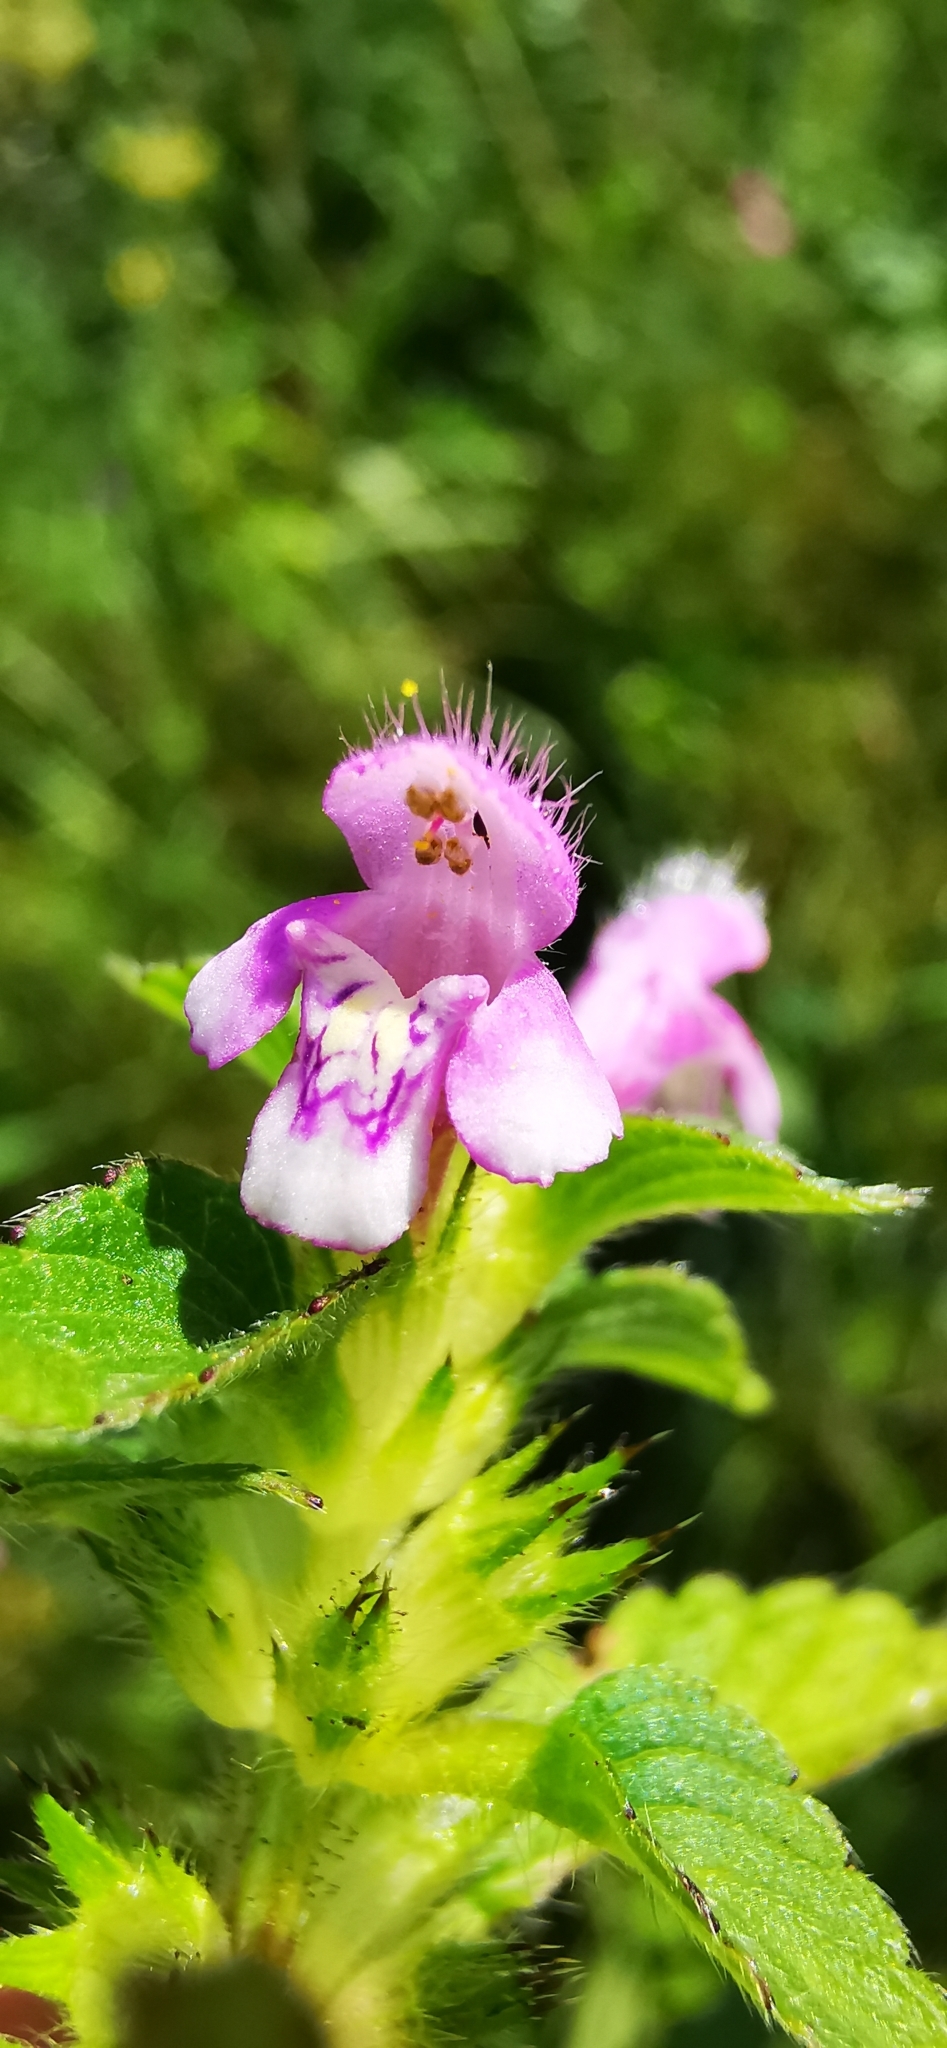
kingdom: Plantae
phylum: Tracheophyta
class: Magnoliopsida
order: Lamiales
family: Lamiaceae
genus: Galeopsis
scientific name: Galeopsis tetrahit
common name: Common hemp-nettle
